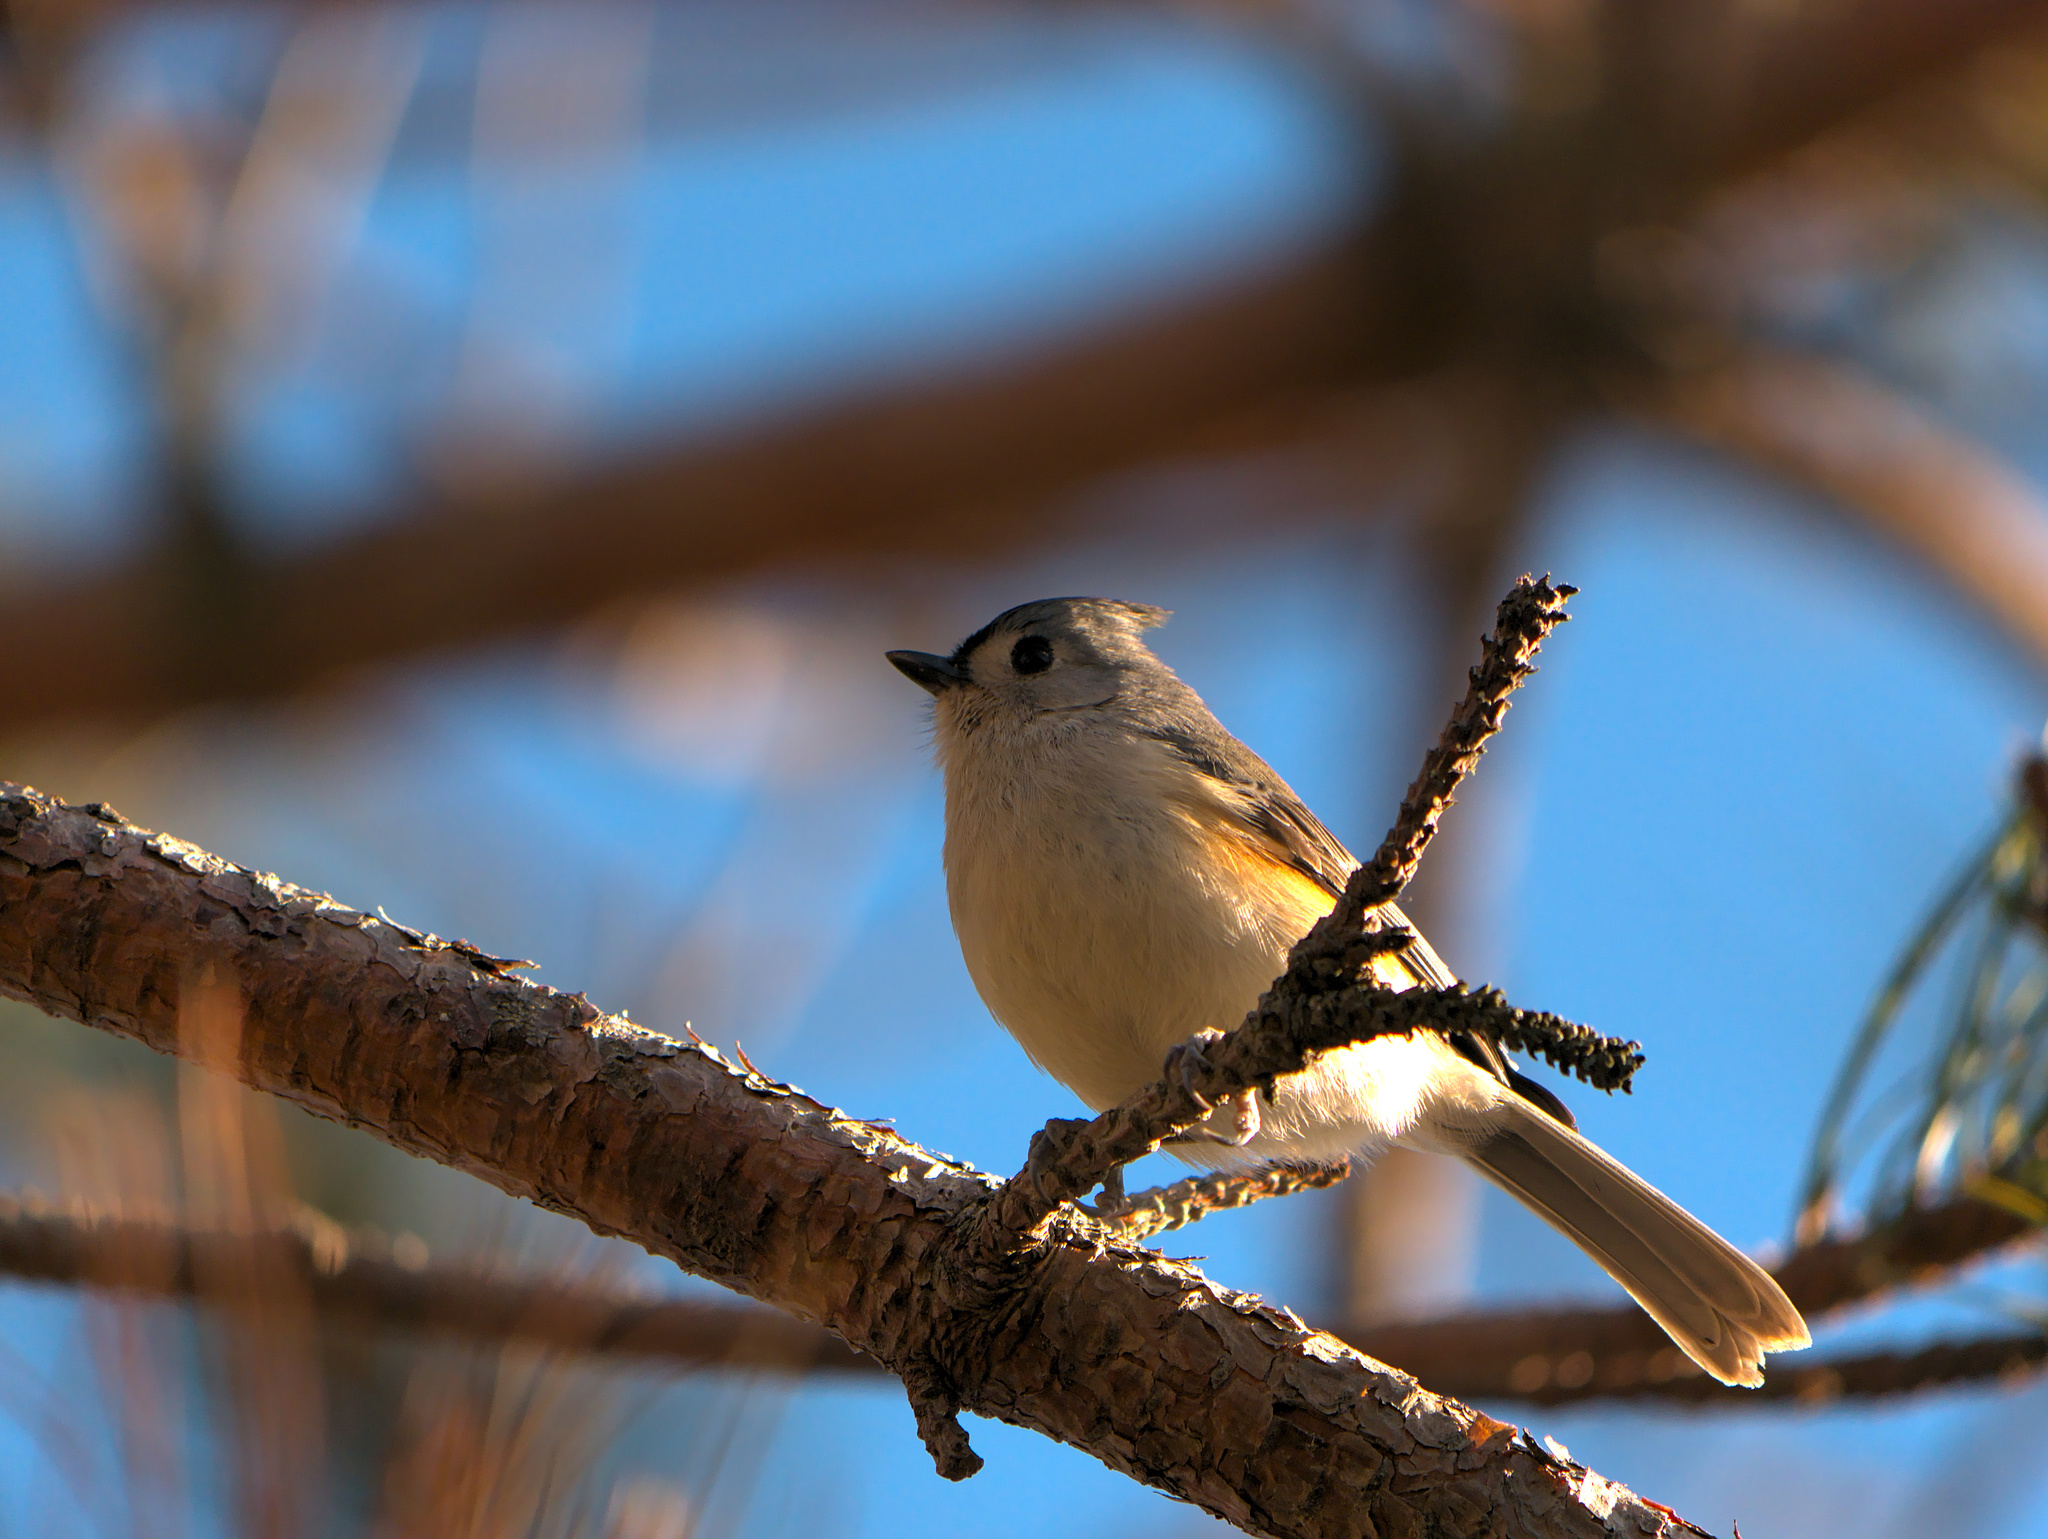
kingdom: Animalia
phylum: Chordata
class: Aves
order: Passeriformes
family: Paridae
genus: Baeolophus
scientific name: Baeolophus bicolor
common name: Tufted titmouse
